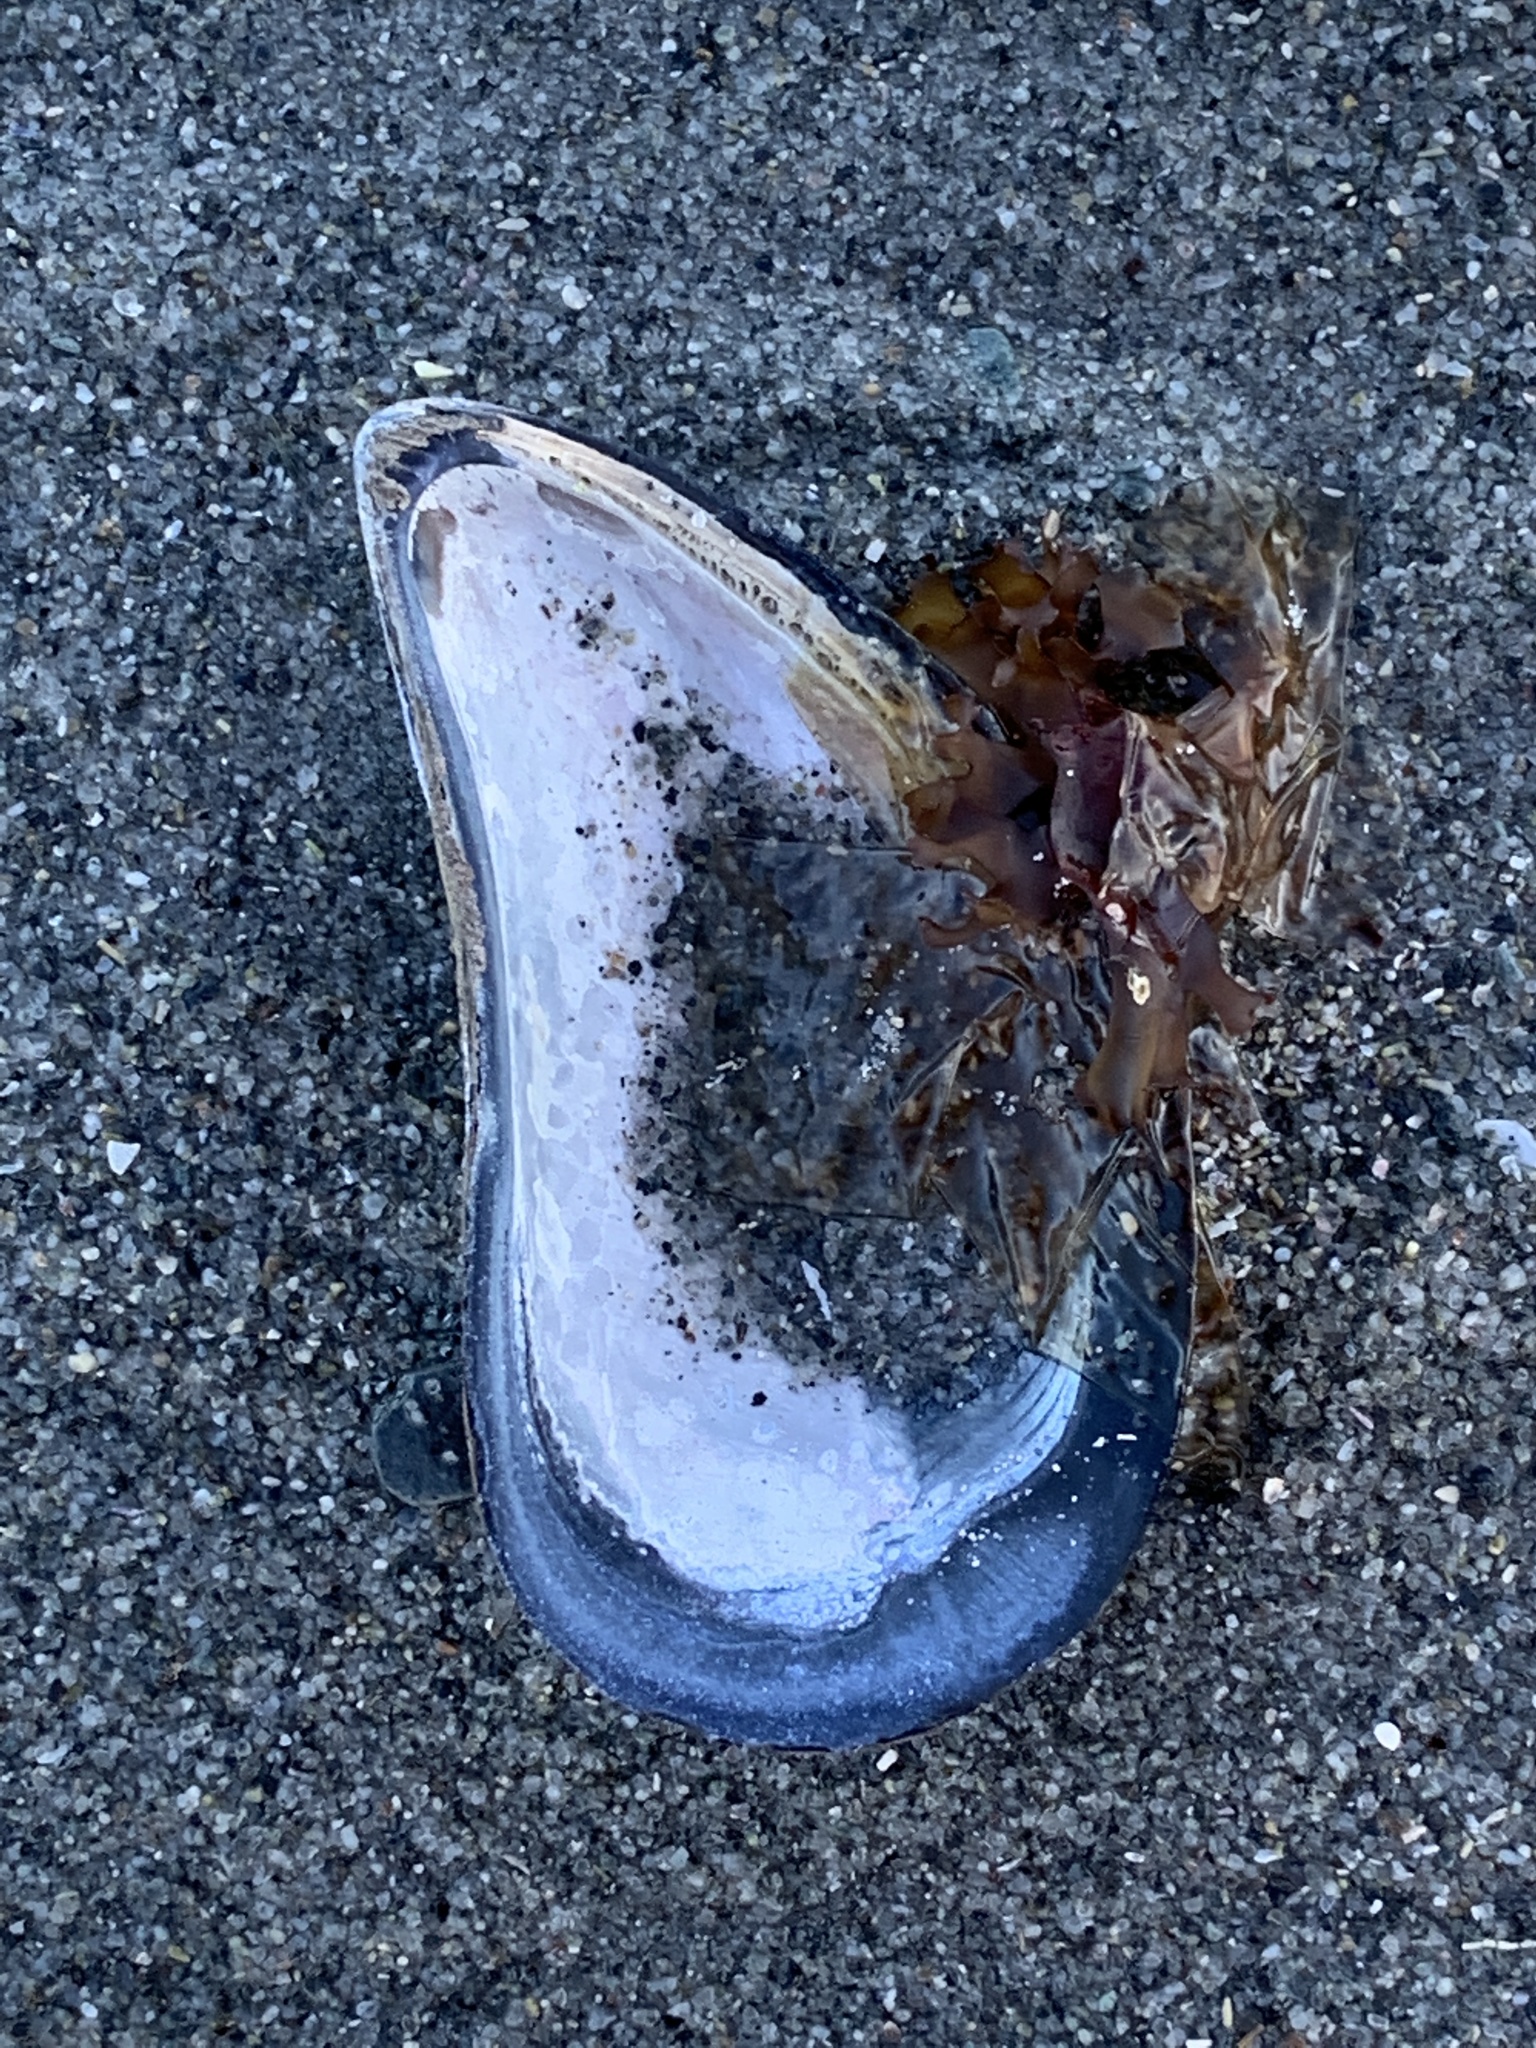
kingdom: Animalia
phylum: Mollusca
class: Bivalvia
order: Mytilida
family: Mytilidae
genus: Mytilus
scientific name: Mytilus edulis
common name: Blue mussel
